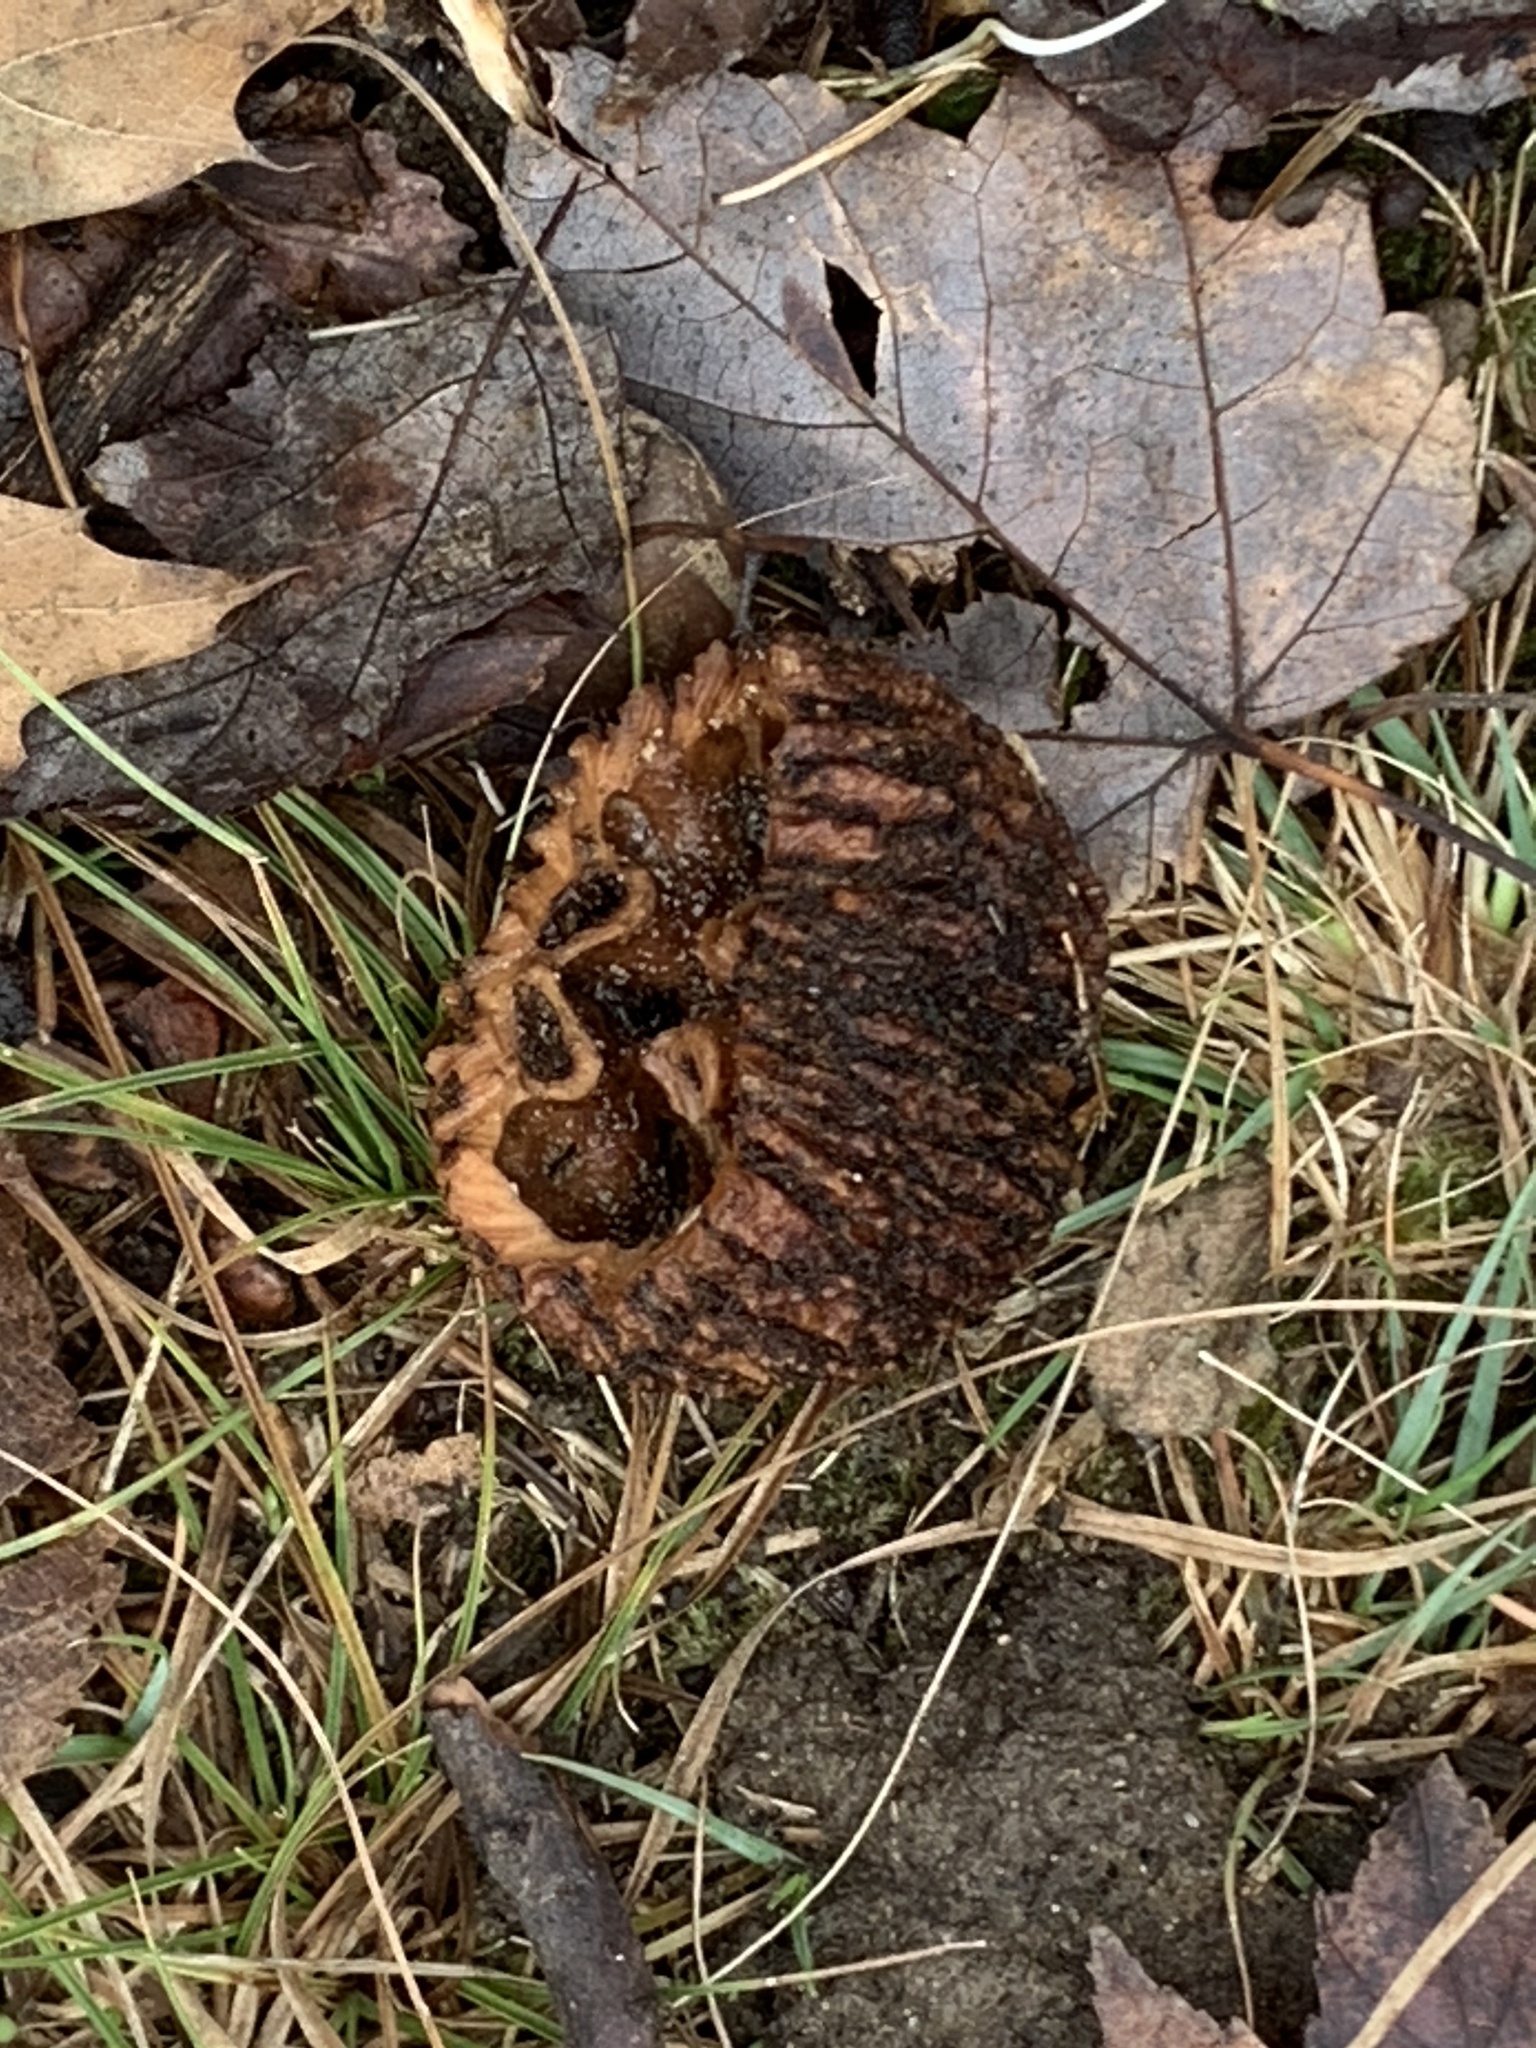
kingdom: Plantae
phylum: Tracheophyta
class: Magnoliopsida
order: Fagales
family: Juglandaceae
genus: Juglans
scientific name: Juglans nigra
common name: Black walnut
